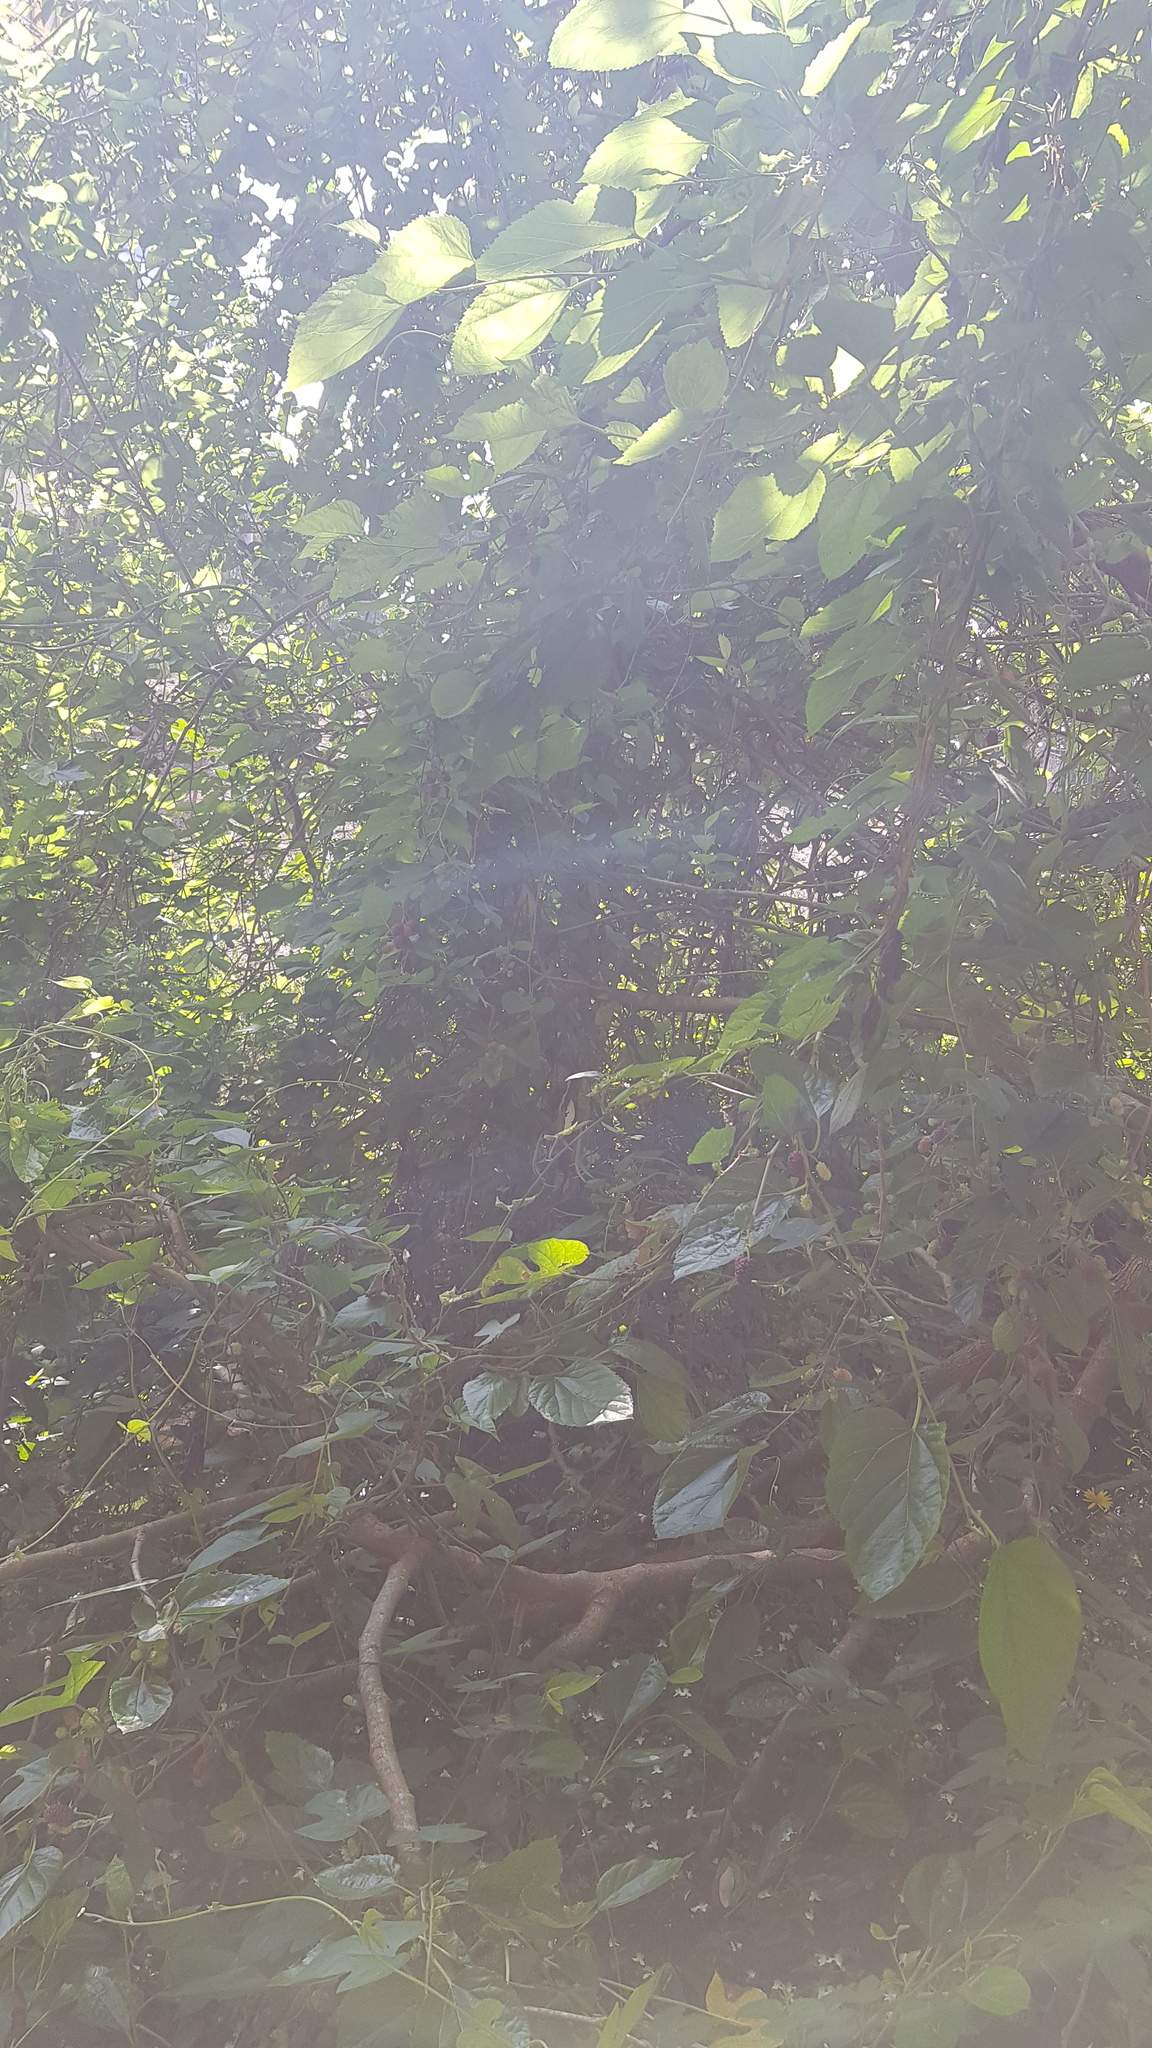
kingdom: Plantae
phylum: Tracheophyta
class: Magnoliopsida
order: Rosales
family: Moraceae
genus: Morus
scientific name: Morus alba
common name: White mulberry
